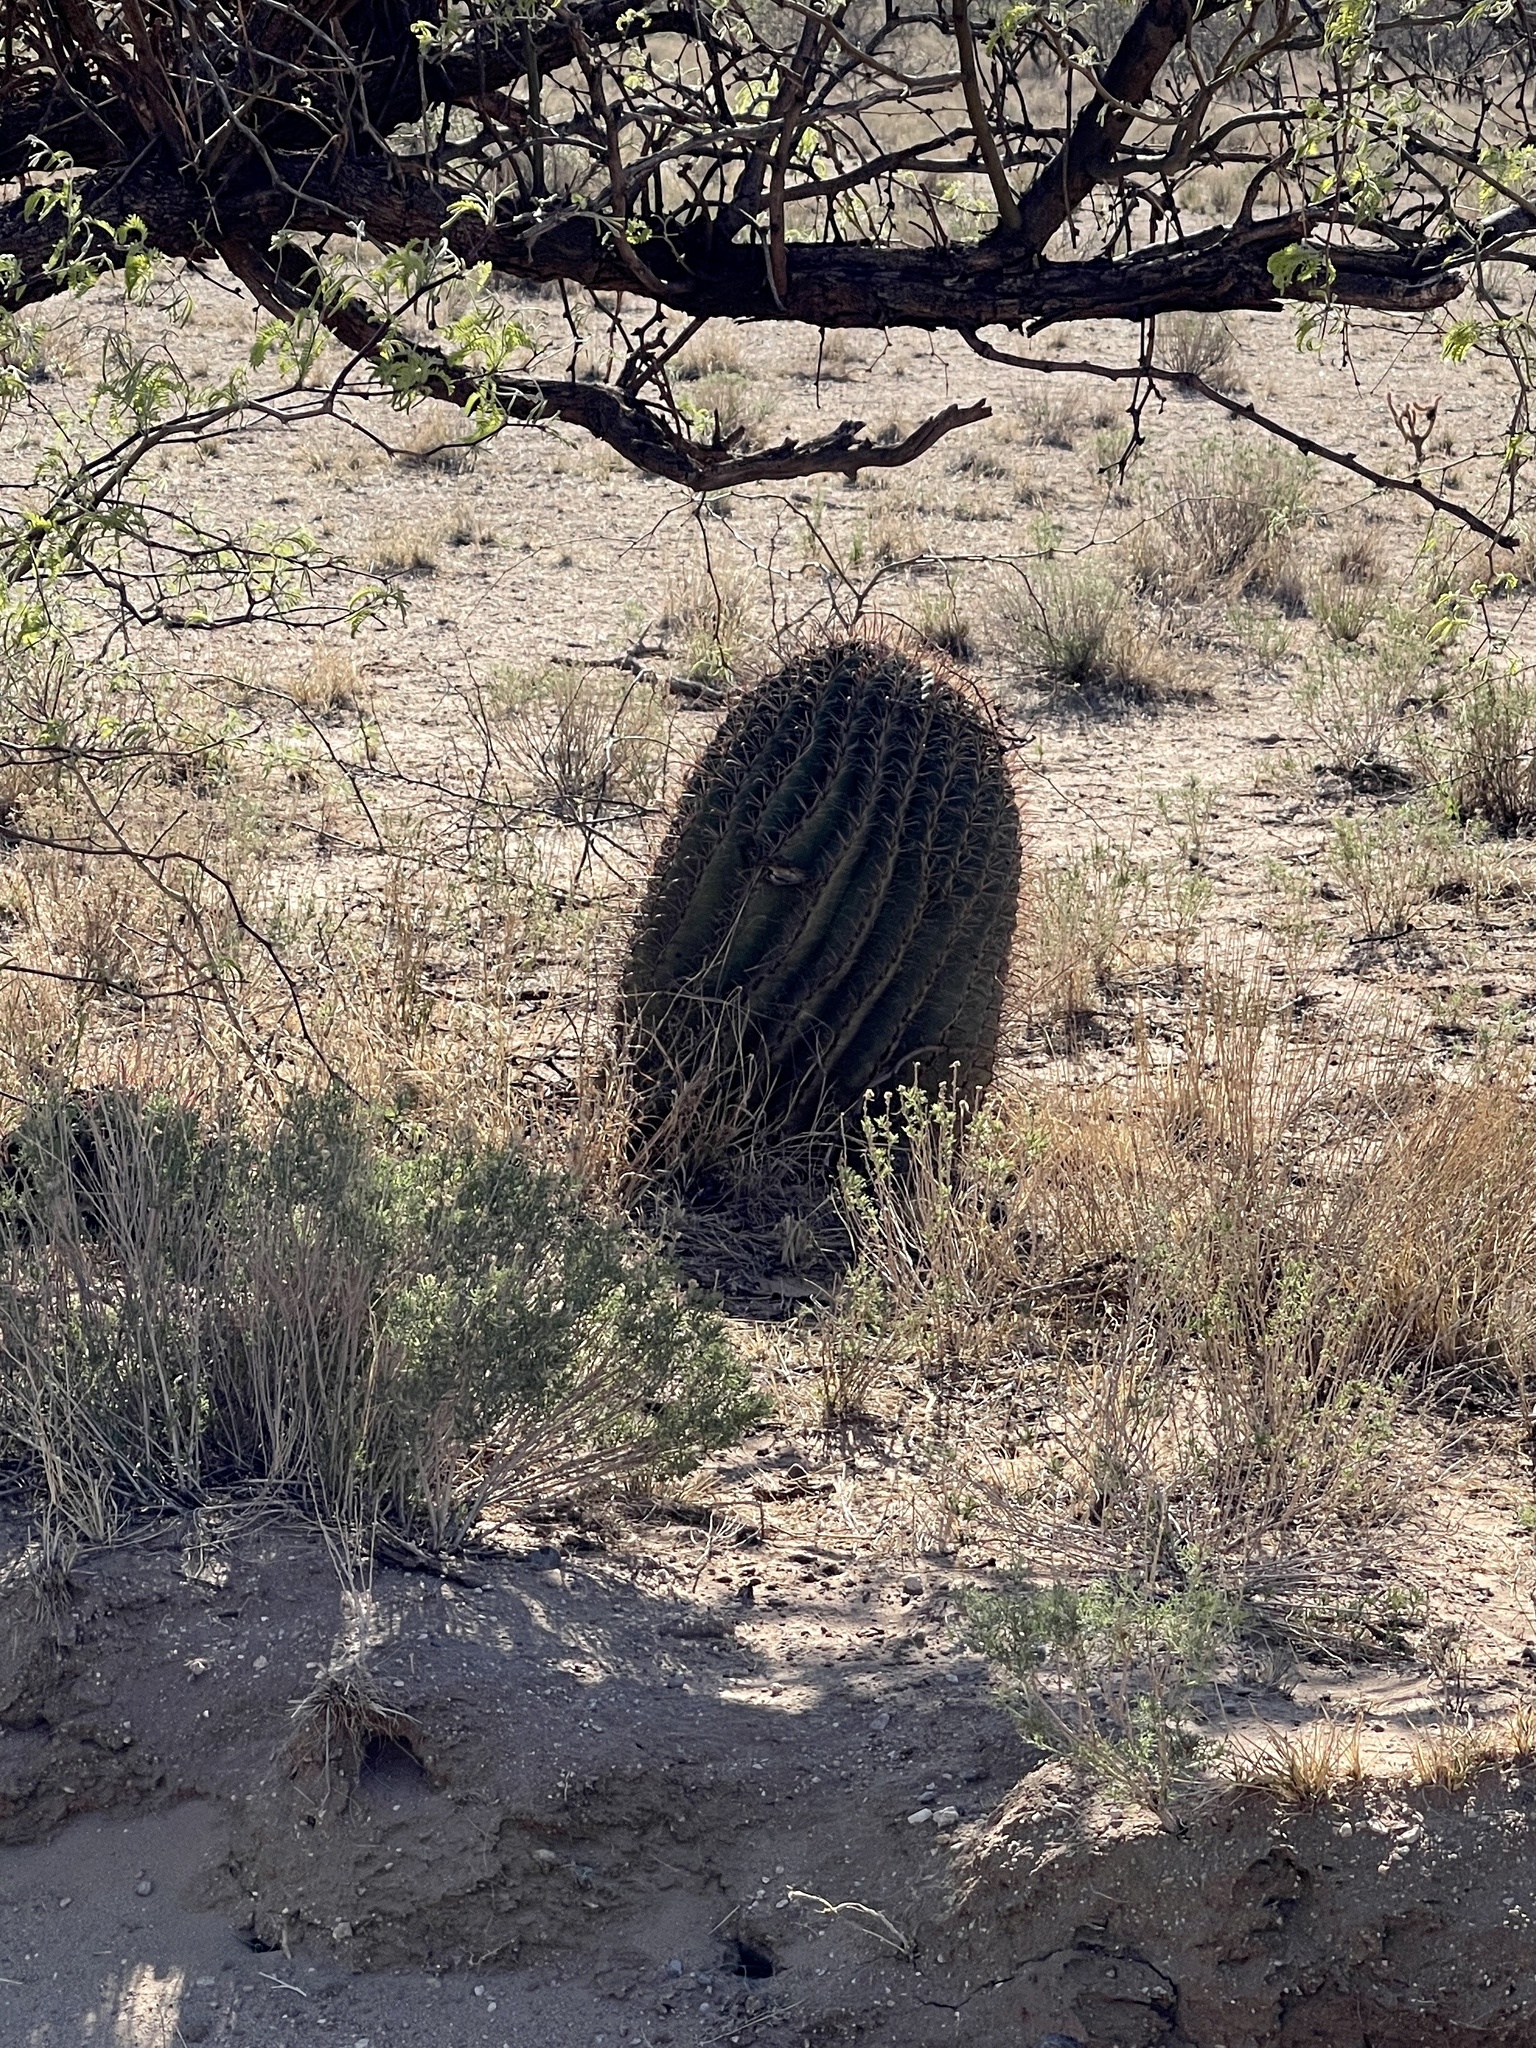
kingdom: Plantae
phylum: Tracheophyta
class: Magnoliopsida
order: Caryophyllales
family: Cactaceae
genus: Ferocactus
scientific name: Ferocactus wislizeni
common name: Candy barrel cactus
